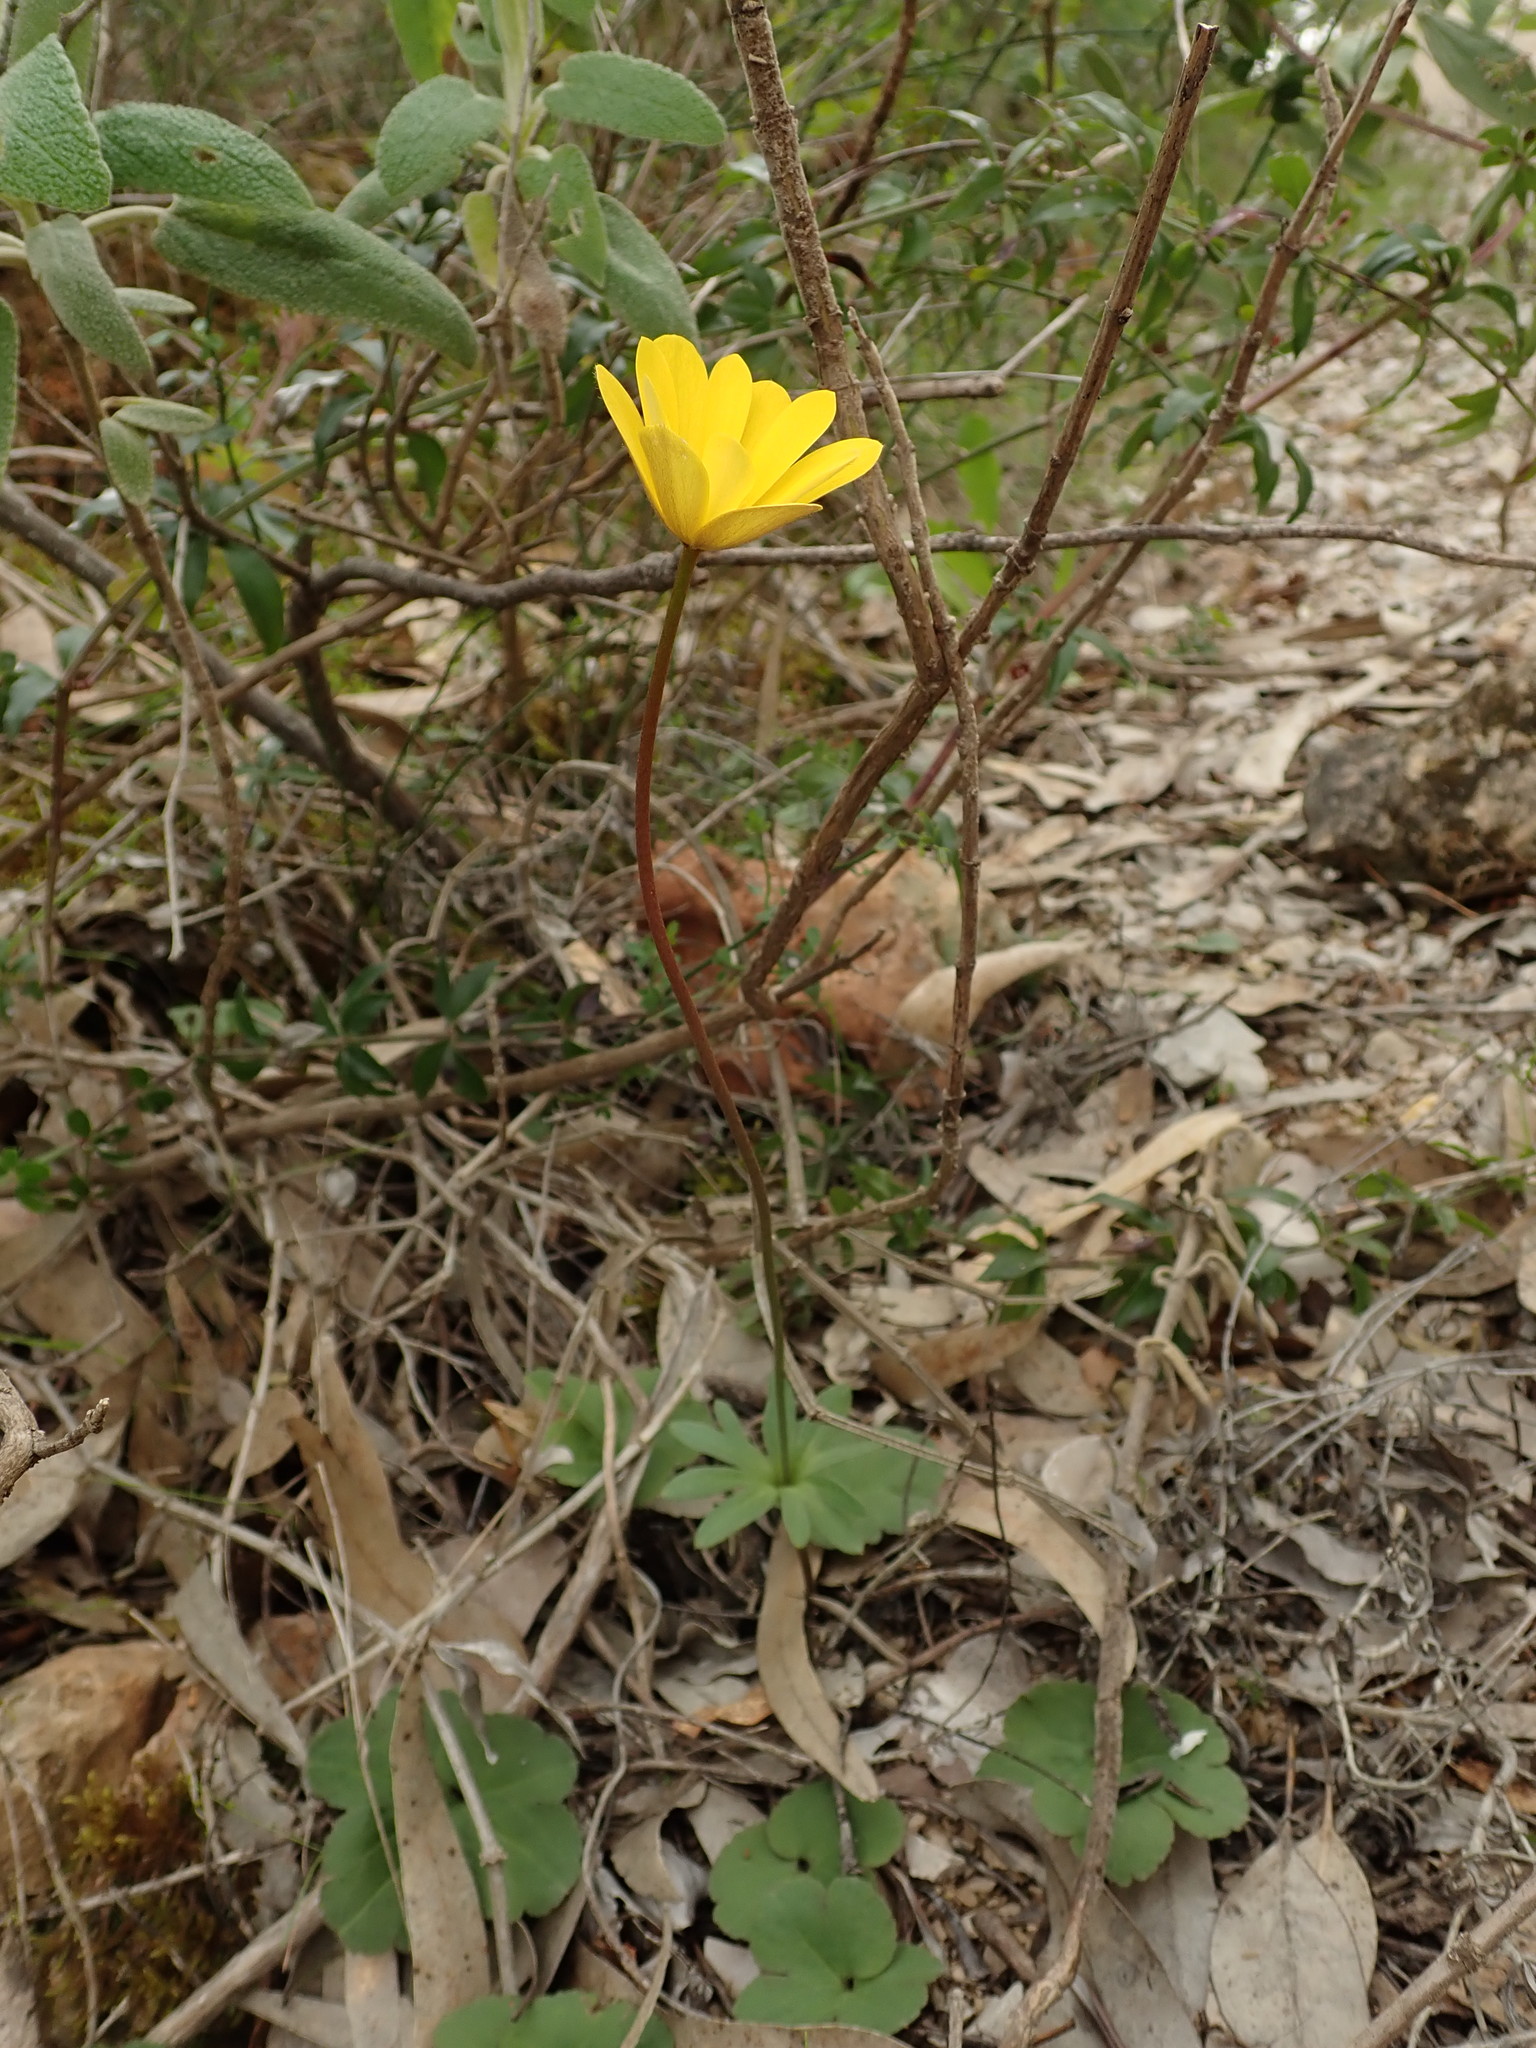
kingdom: Plantae
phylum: Tracheophyta
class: Magnoliopsida
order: Ranunculales
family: Ranunculaceae
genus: Anemone
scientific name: Anemone palmata
